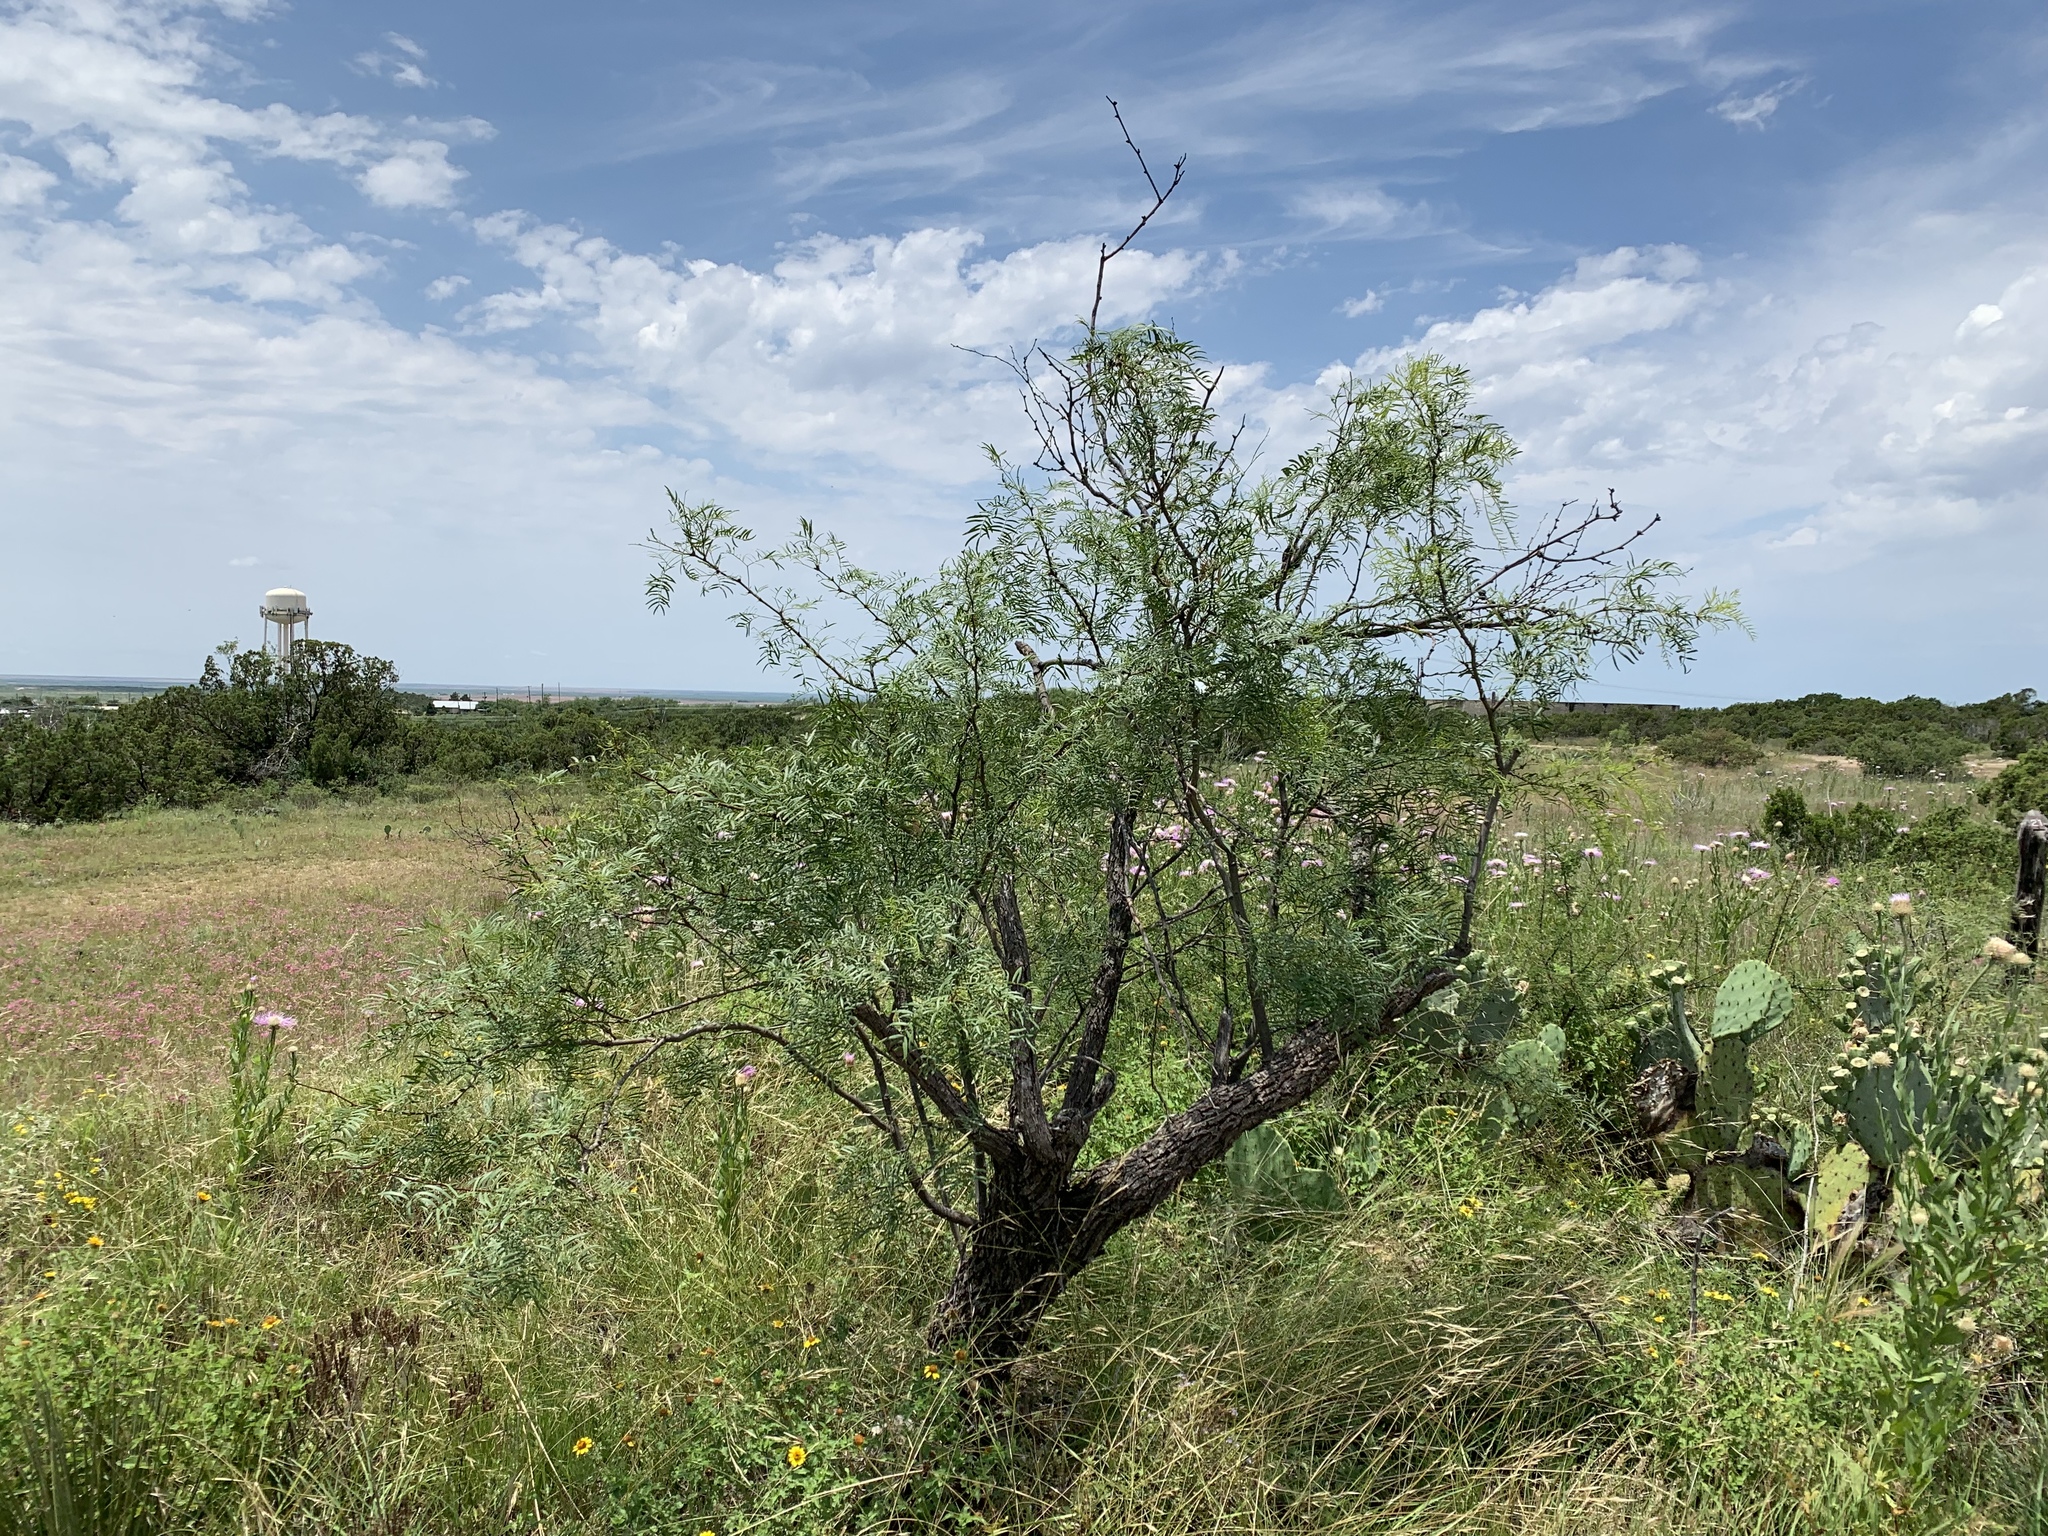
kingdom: Plantae
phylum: Tracheophyta
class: Magnoliopsida
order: Fabales
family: Fabaceae
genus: Prosopis
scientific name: Prosopis glandulosa
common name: Honey mesquite
